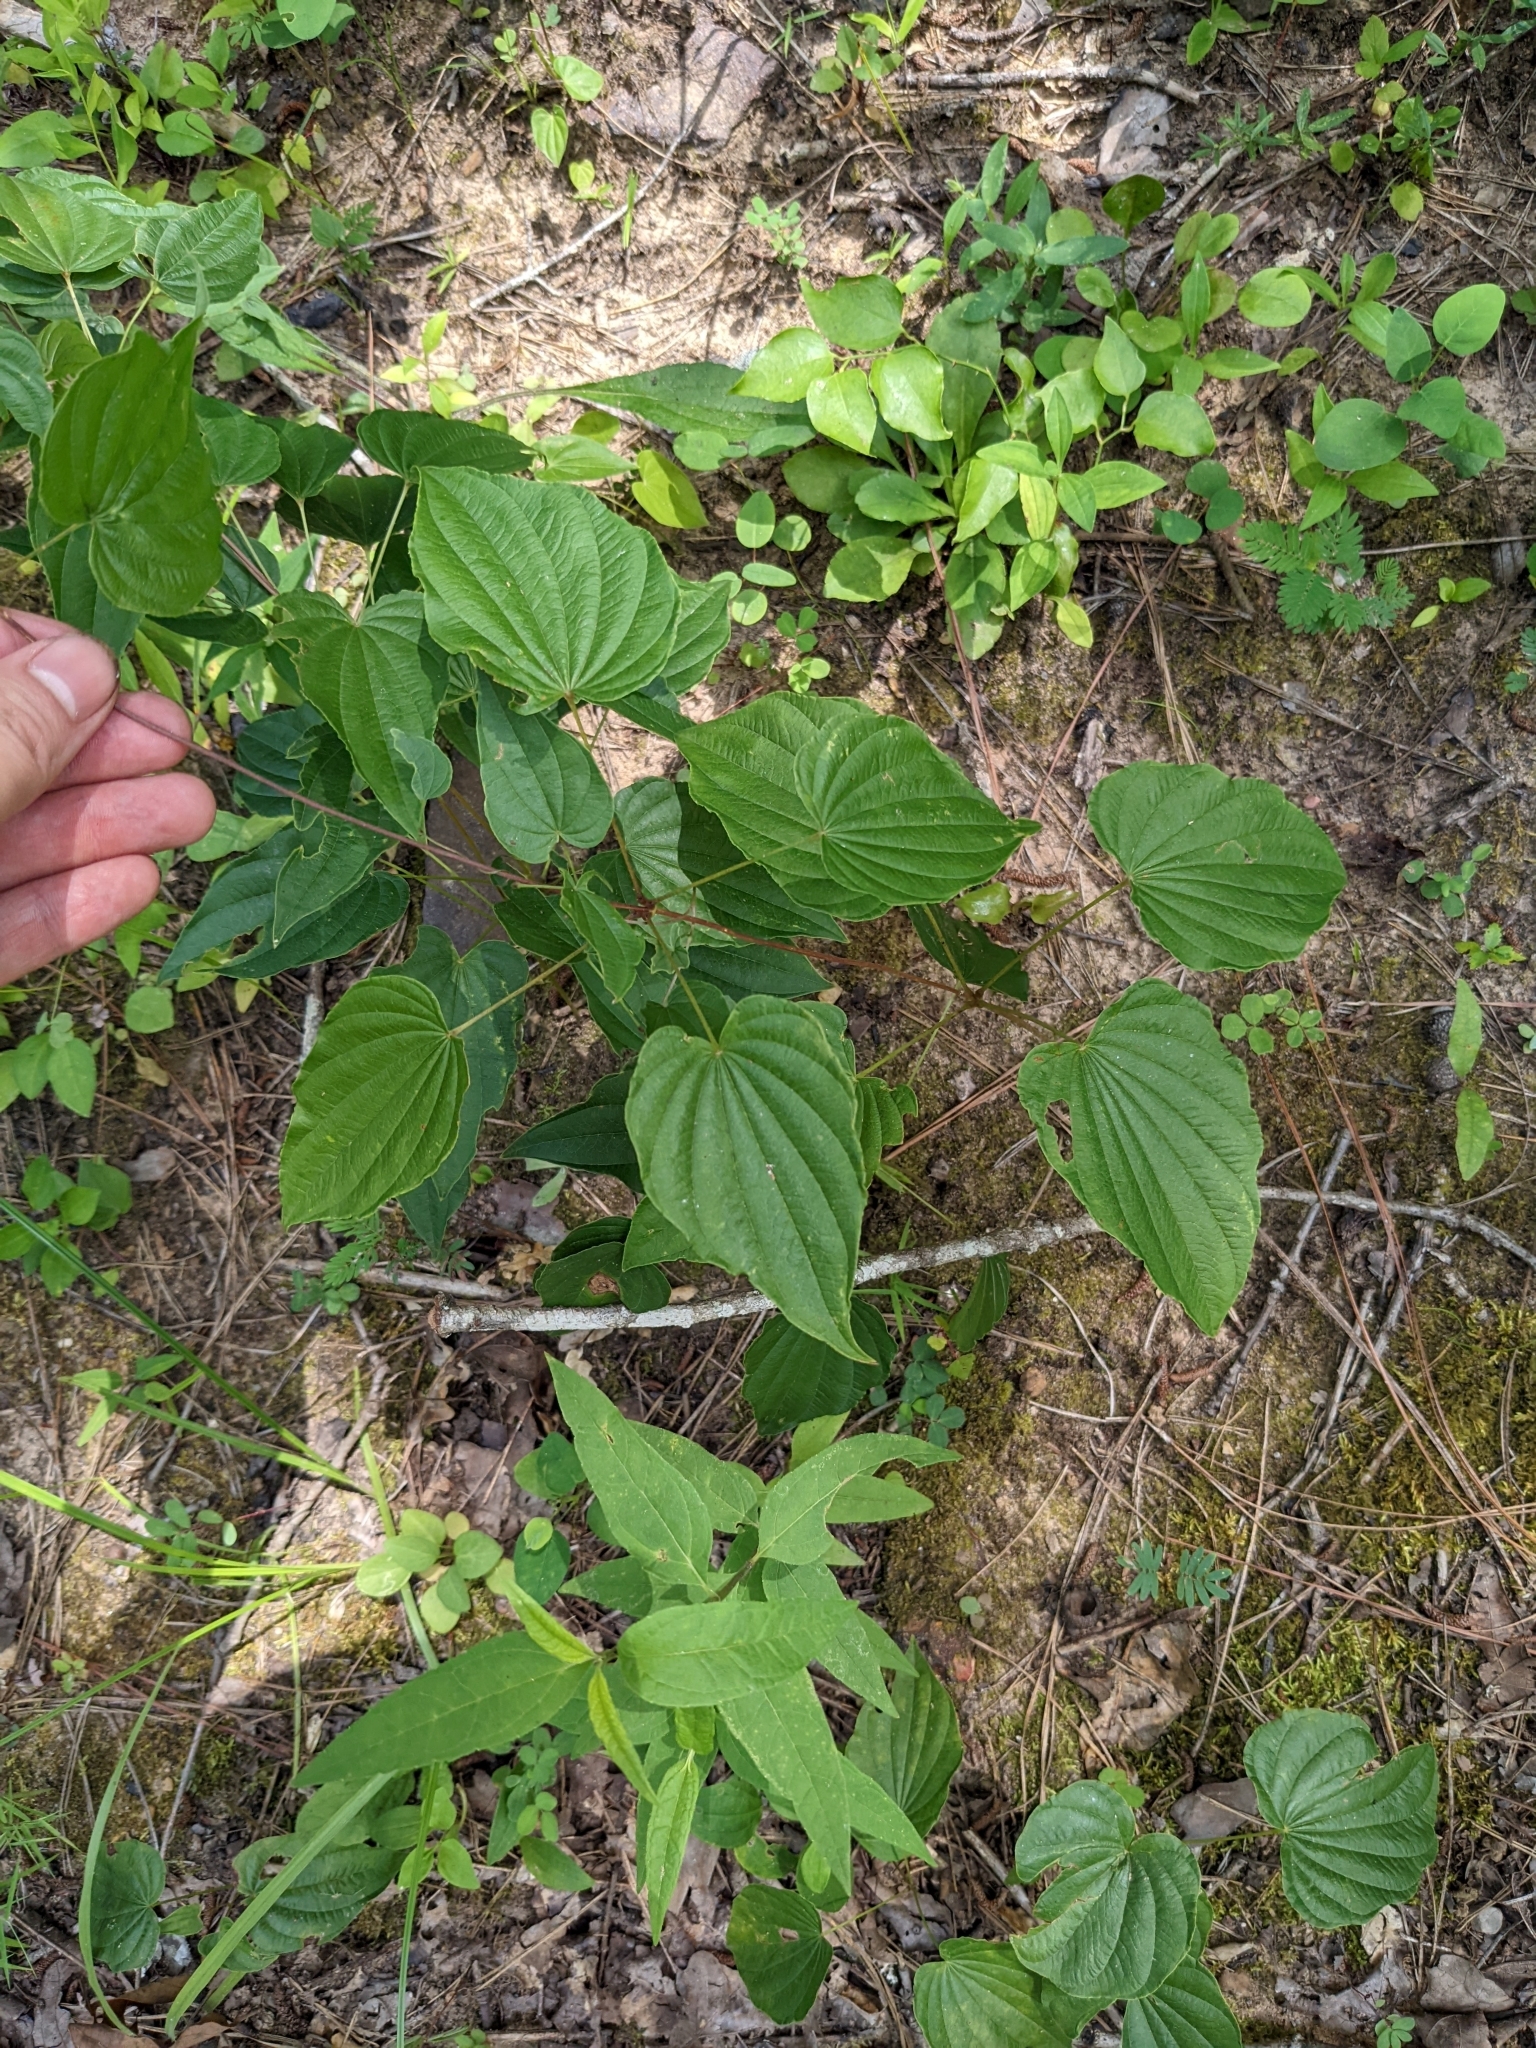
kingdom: Plantae
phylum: Tracheophyta
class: Liliopsida
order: Dioscoreales
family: Dioscoreaceae
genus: Dioscorea
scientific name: Dioscorea villosa
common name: Wild yam
